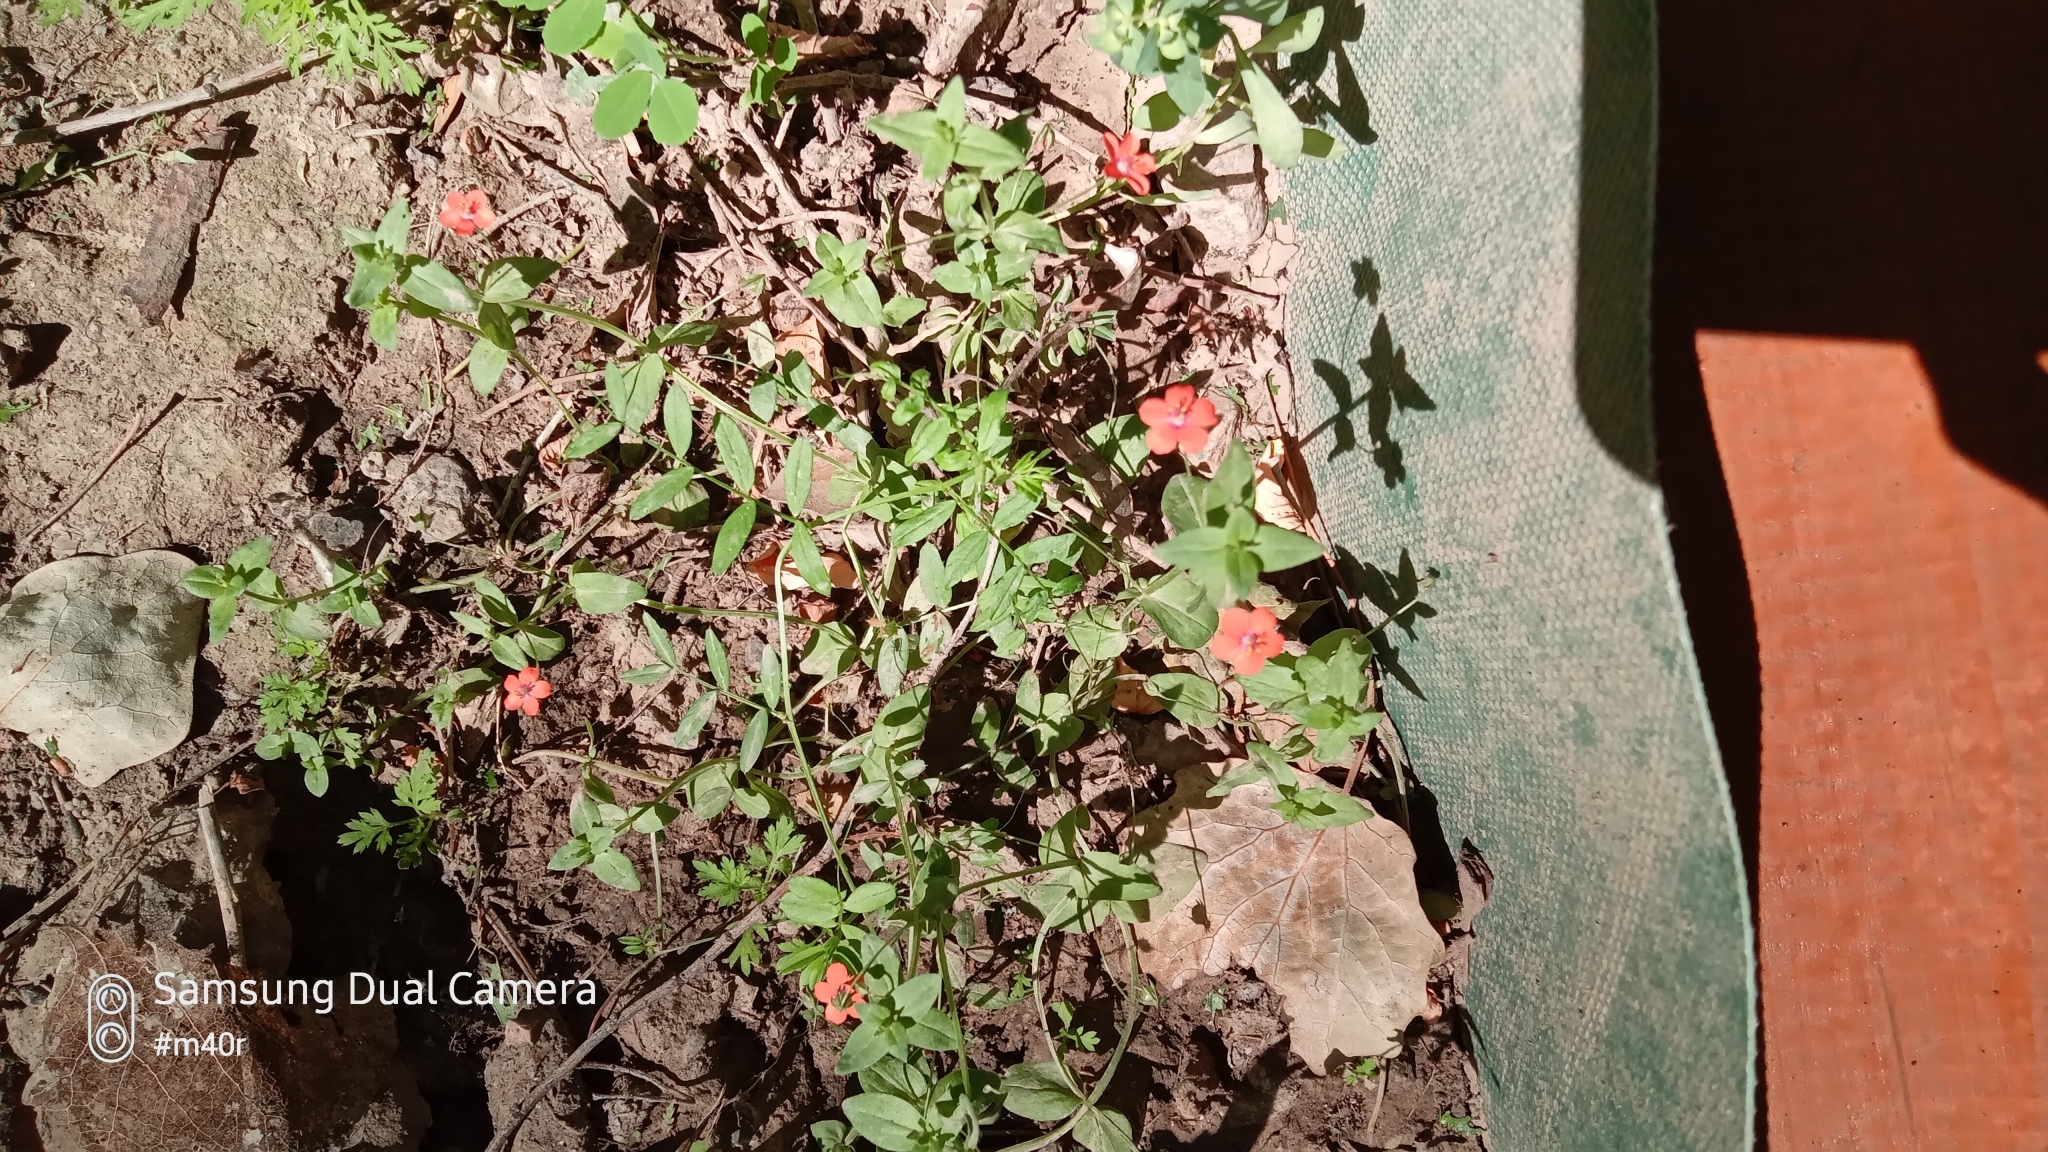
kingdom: Plantae
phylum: Tracheophyta
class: Magnoliopsida
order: Ericales
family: Primulaceae
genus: Lysimachia
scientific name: Lysimachia arvensis
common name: Scarlet pimpernel
